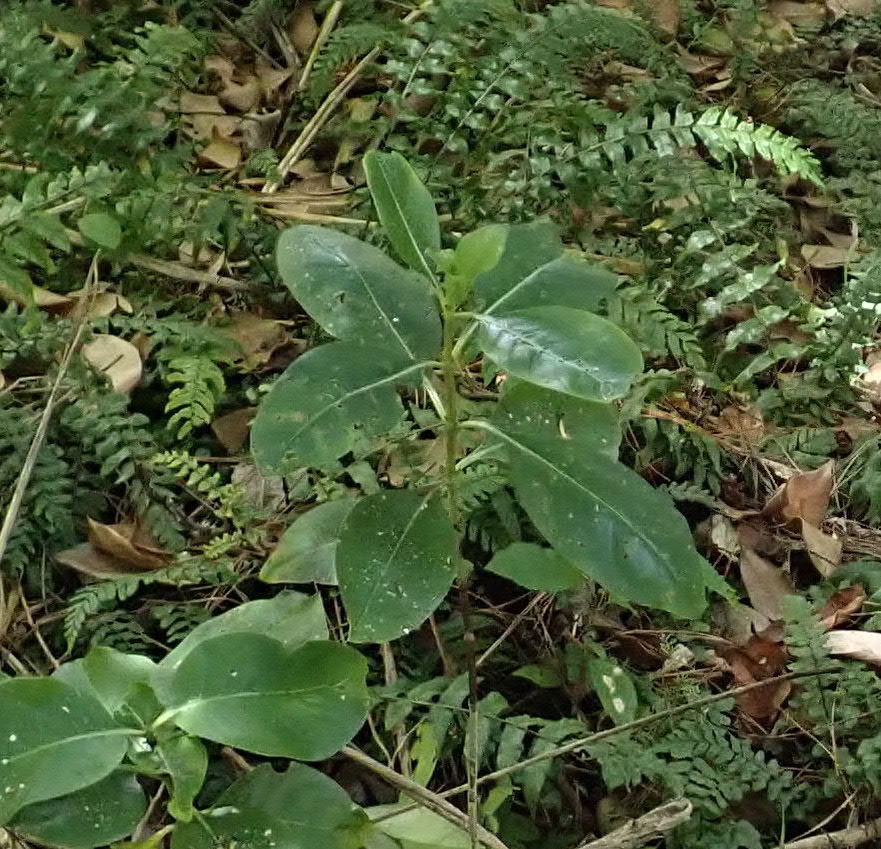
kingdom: Plantae
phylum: Tracheophyta
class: Magnoliopsida
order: Gentianales
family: Rubiaceae
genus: Coprosma
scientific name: Coprosma macrocarpa
